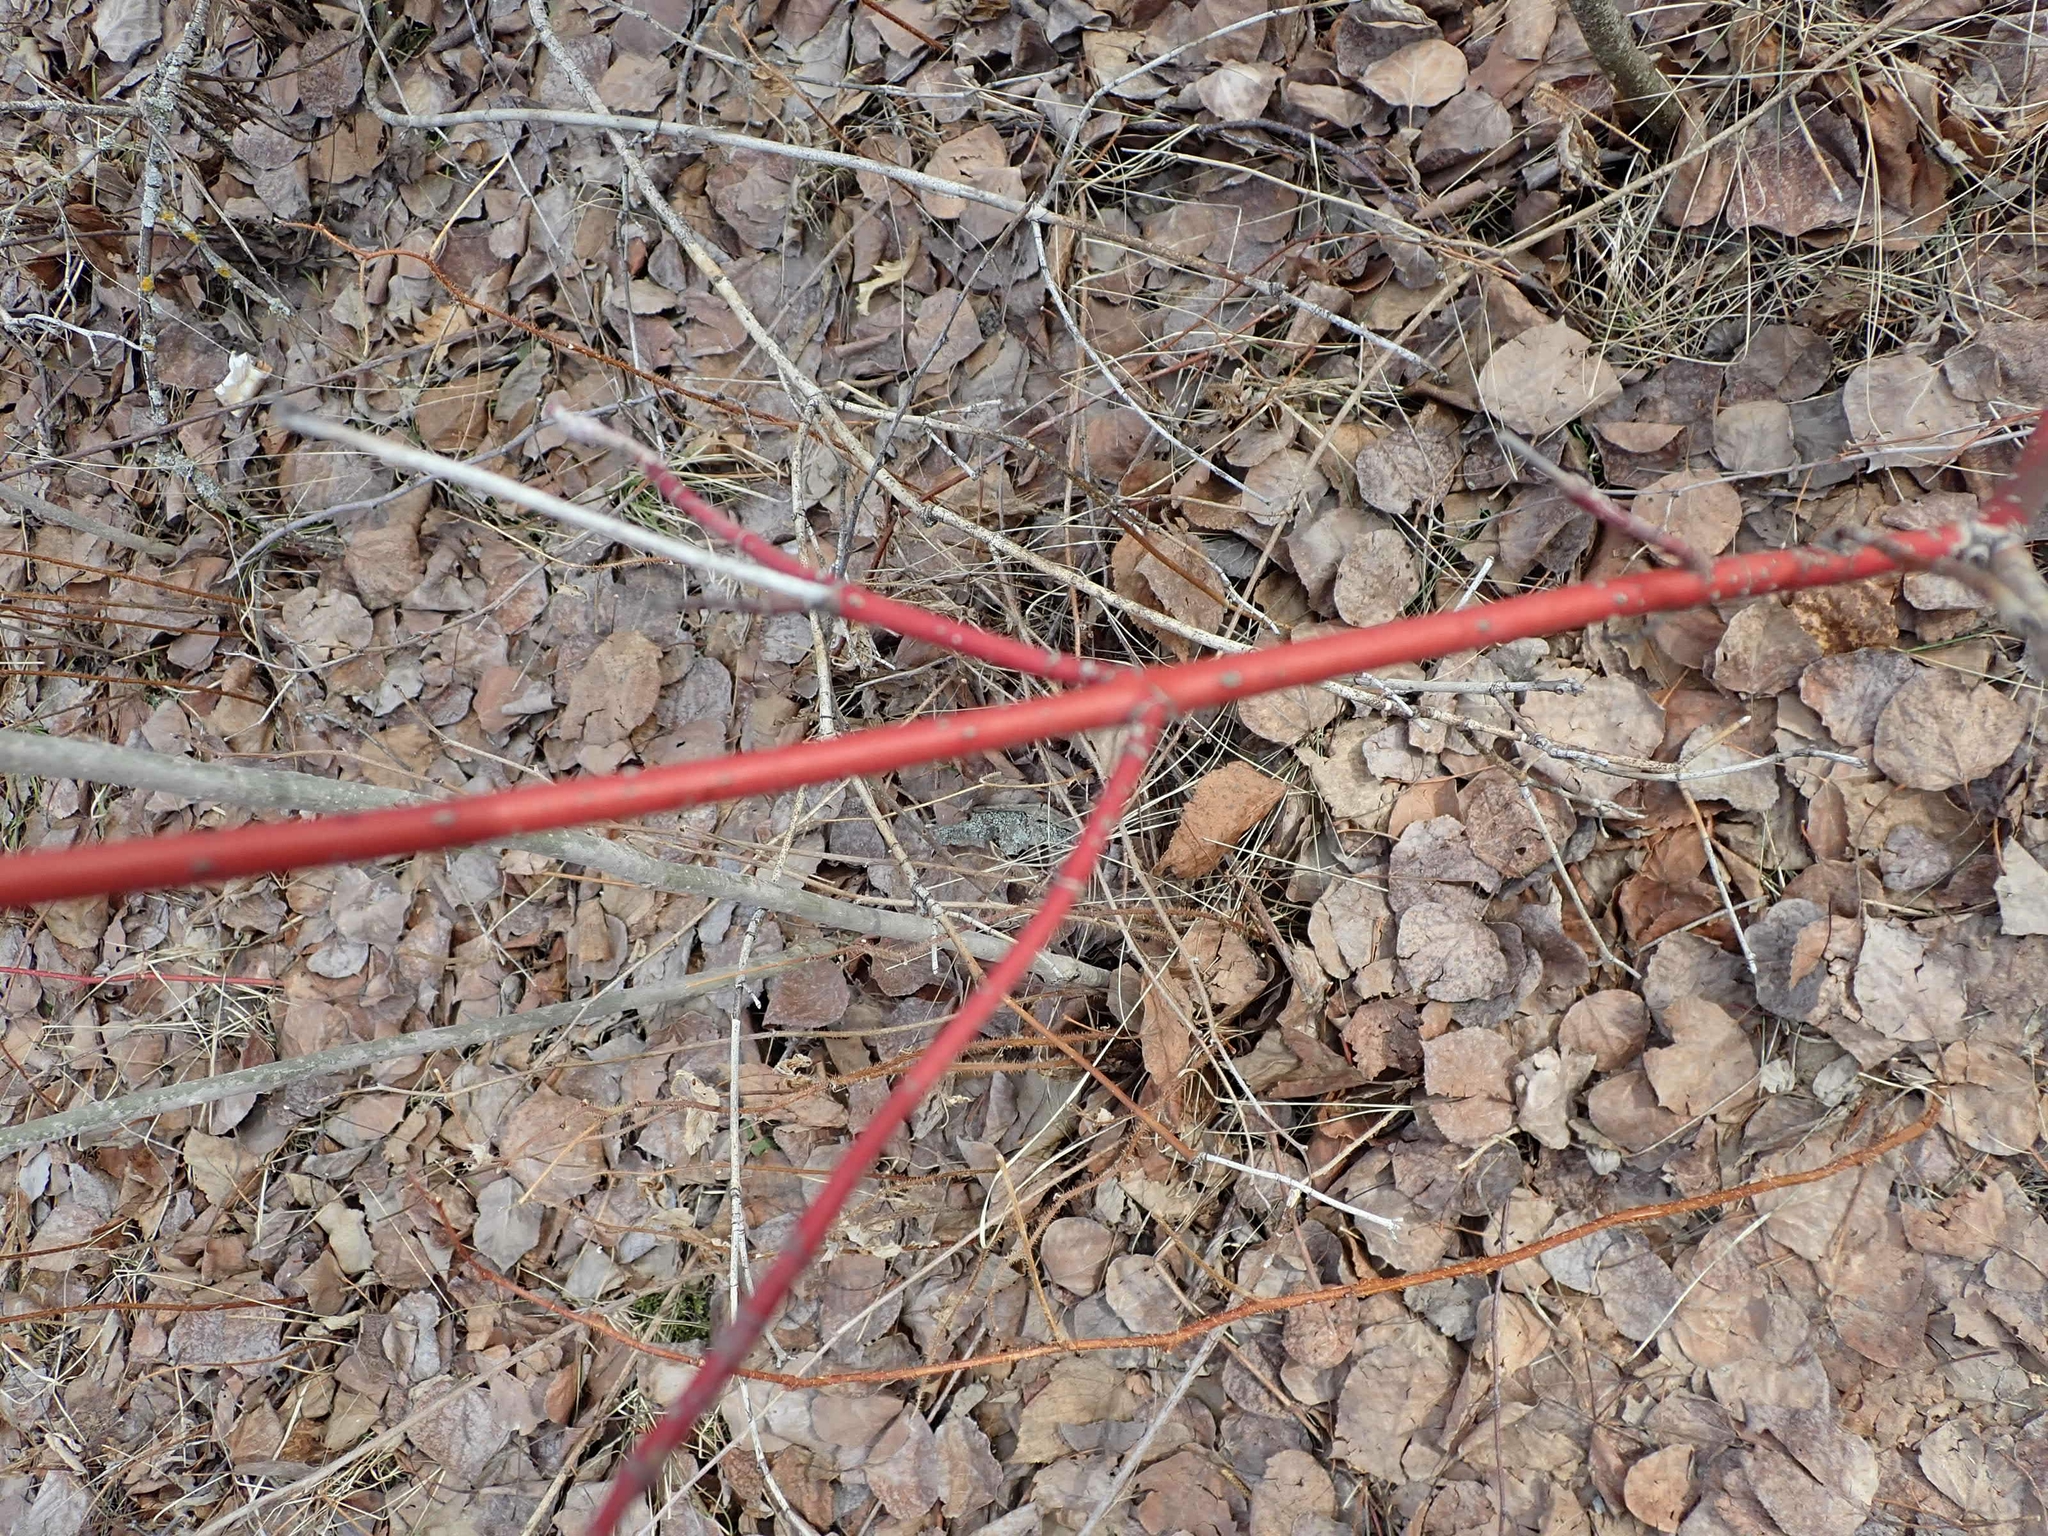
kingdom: Plantae
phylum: Tracheophyta
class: Magnoliopsida
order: Cornales
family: Cornaceae
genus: Cornus
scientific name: Cornus sericea
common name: Red-osier dogwood
